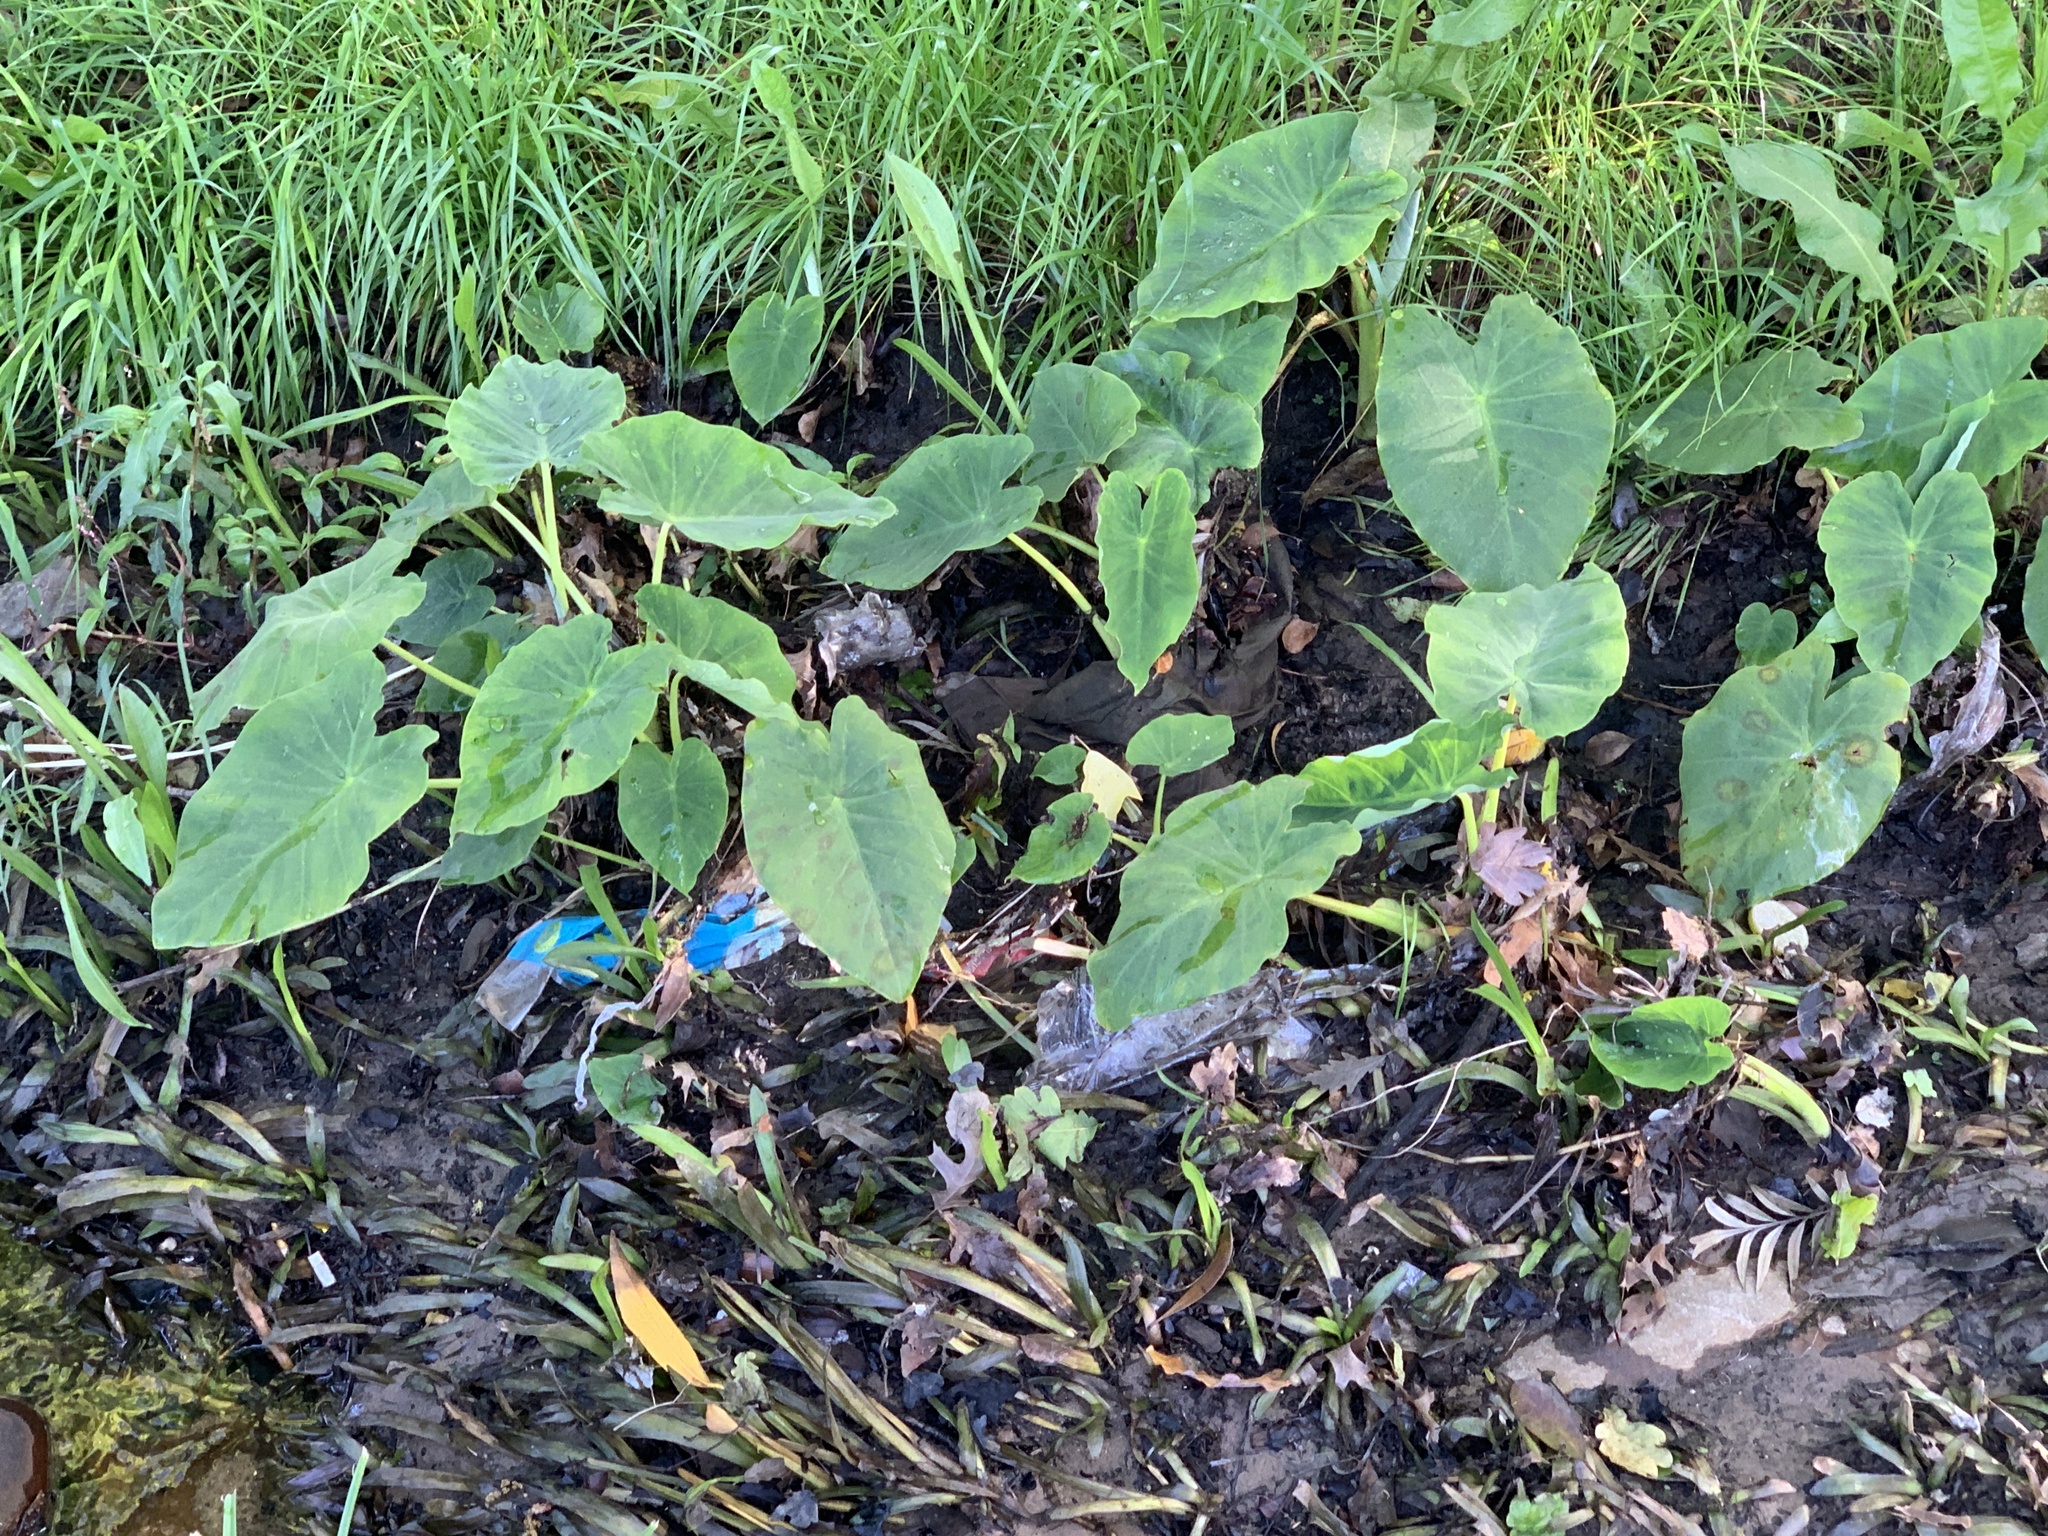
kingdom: Plantae
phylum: Tracheophyta
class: Liliopsida
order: Alismatales
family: Araceae
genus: Colocasia
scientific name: Colocasia esculenta
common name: Taro
